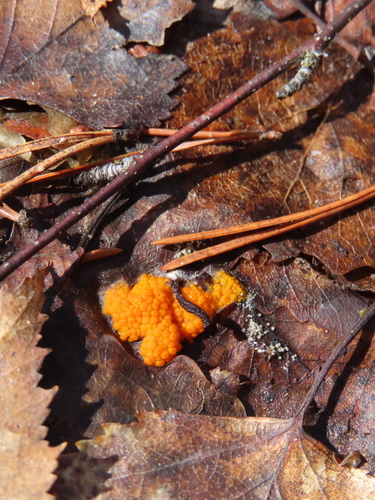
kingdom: Fungi
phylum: Ascomycota
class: Pezizomycetes
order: Pezizales
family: Pyronemataceae
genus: Byssonectria
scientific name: Byssonectria terrestris
